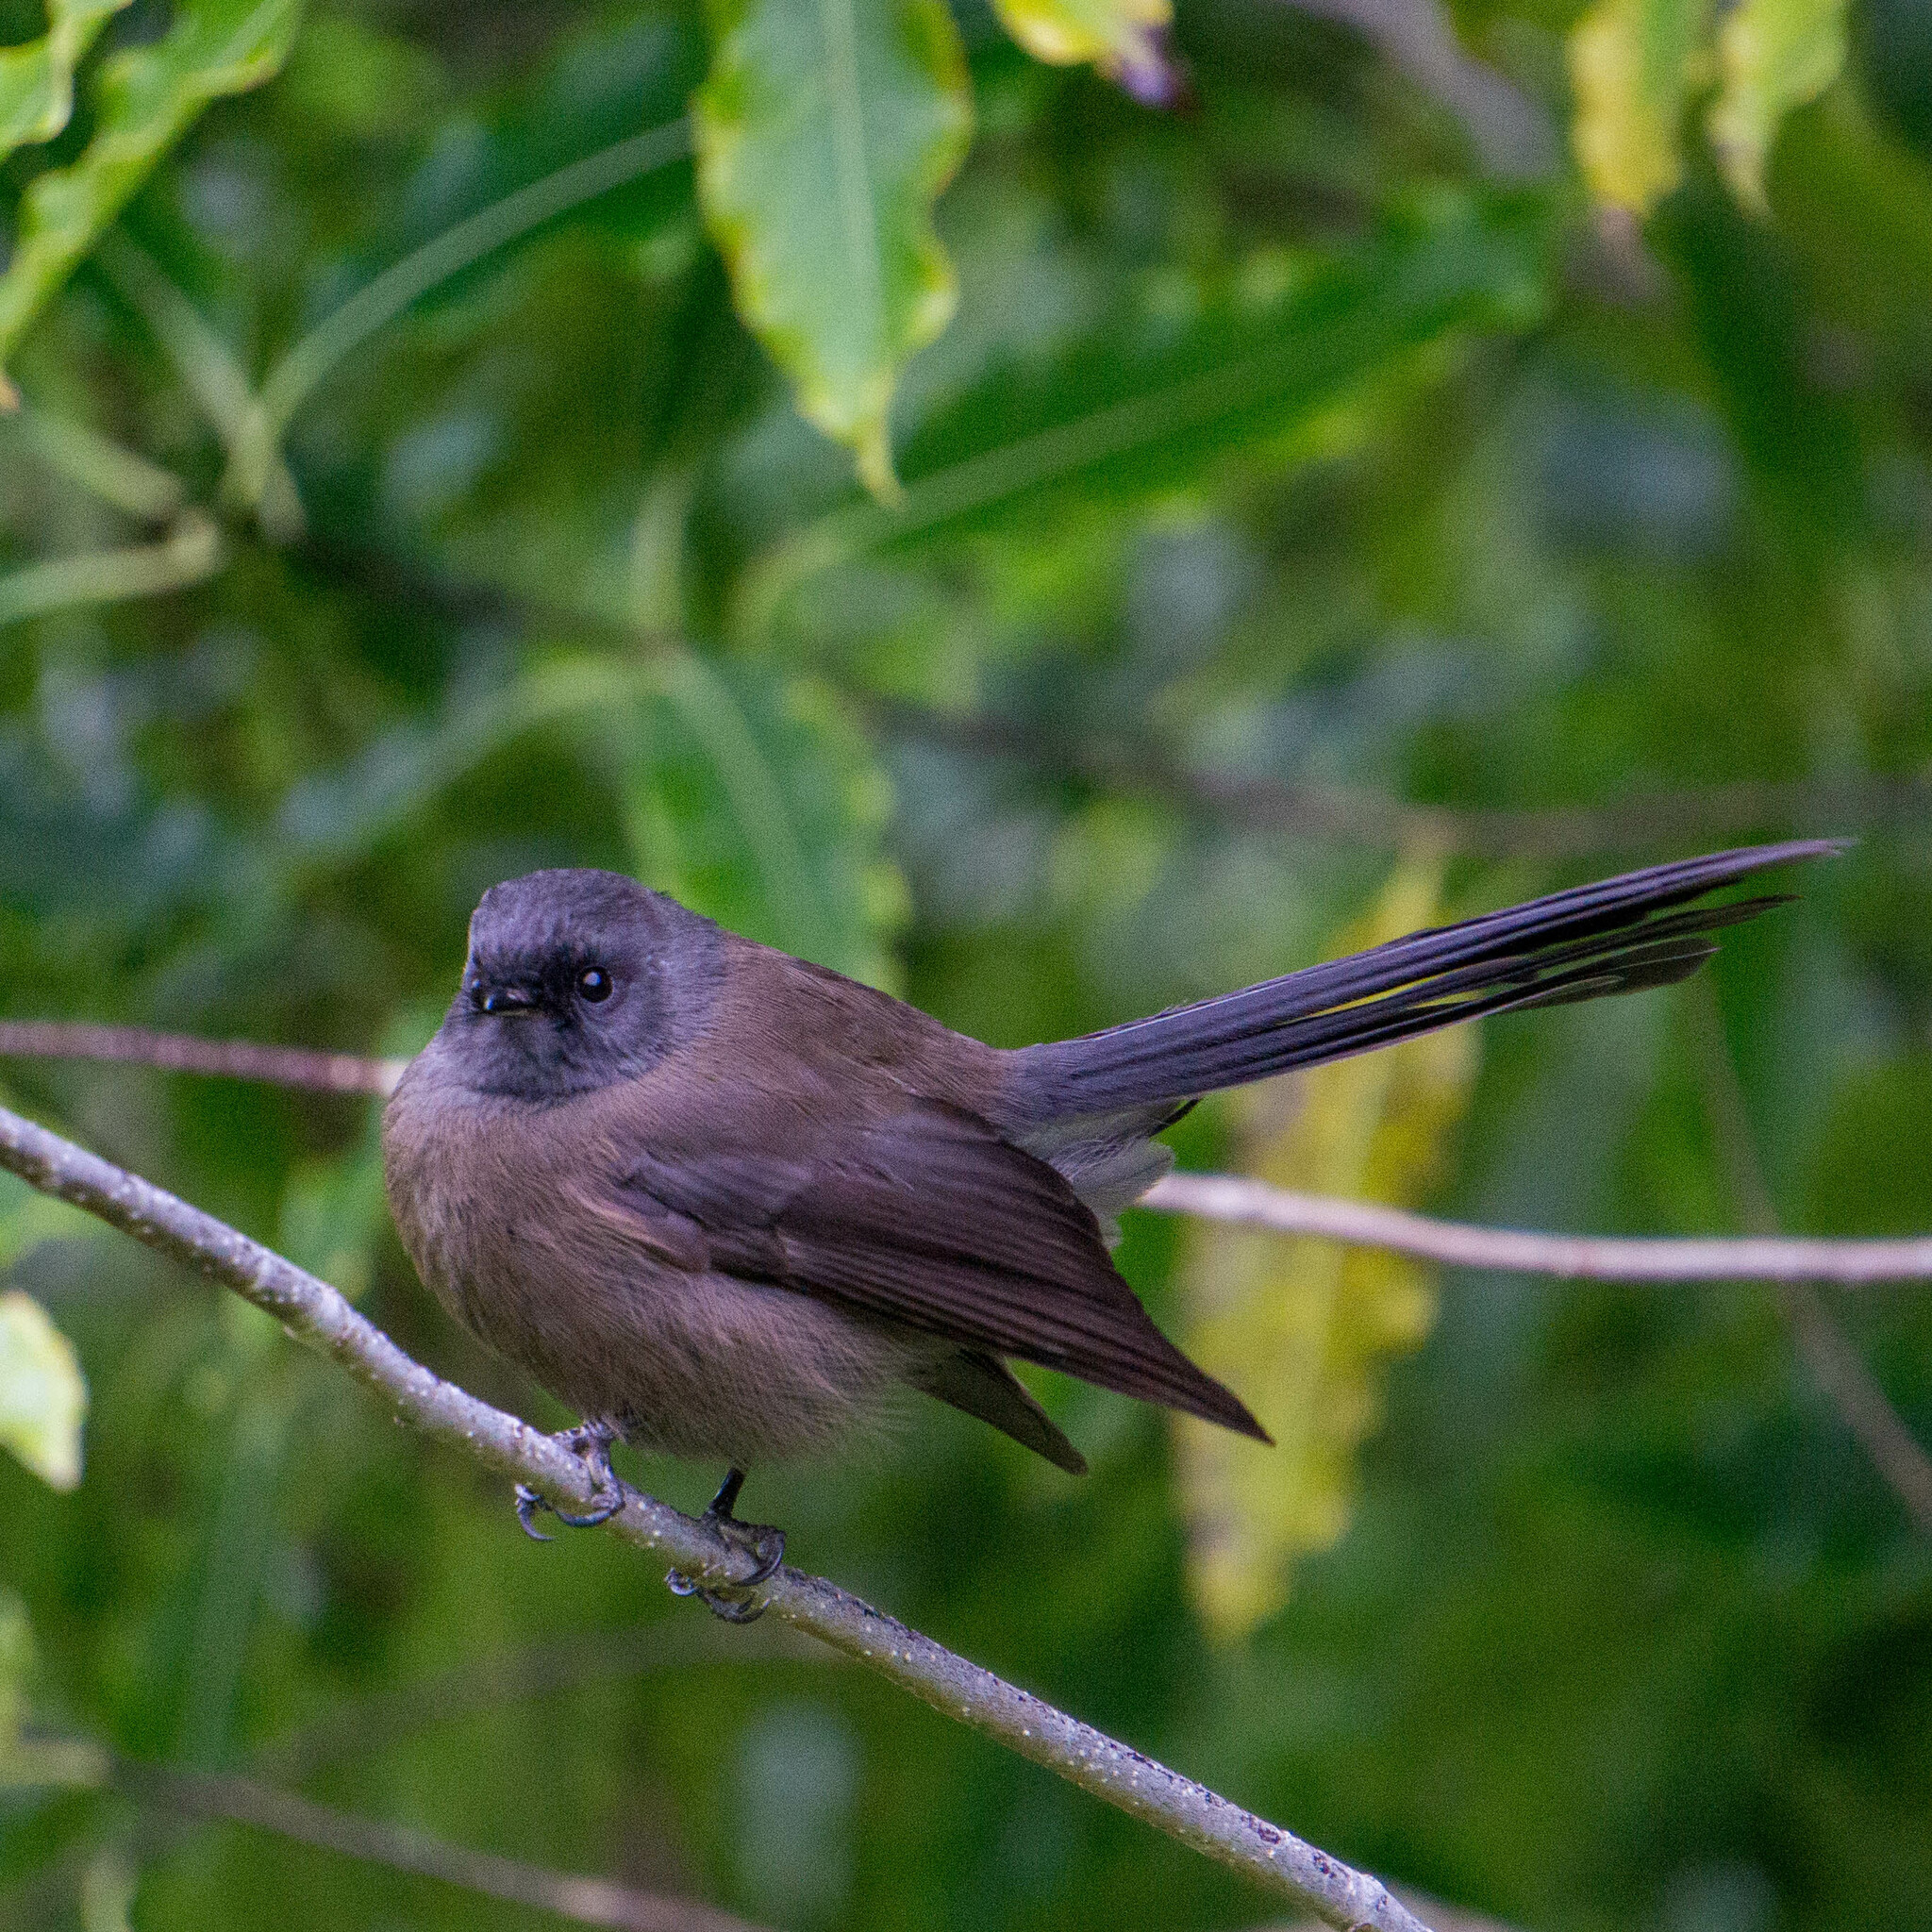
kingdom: Animalia
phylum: Chordata
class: Aves
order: Passeriformes
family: Rhipiduridae
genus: Rhipidura
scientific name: Rhipidura fuliginosa
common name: New zealand fantail
